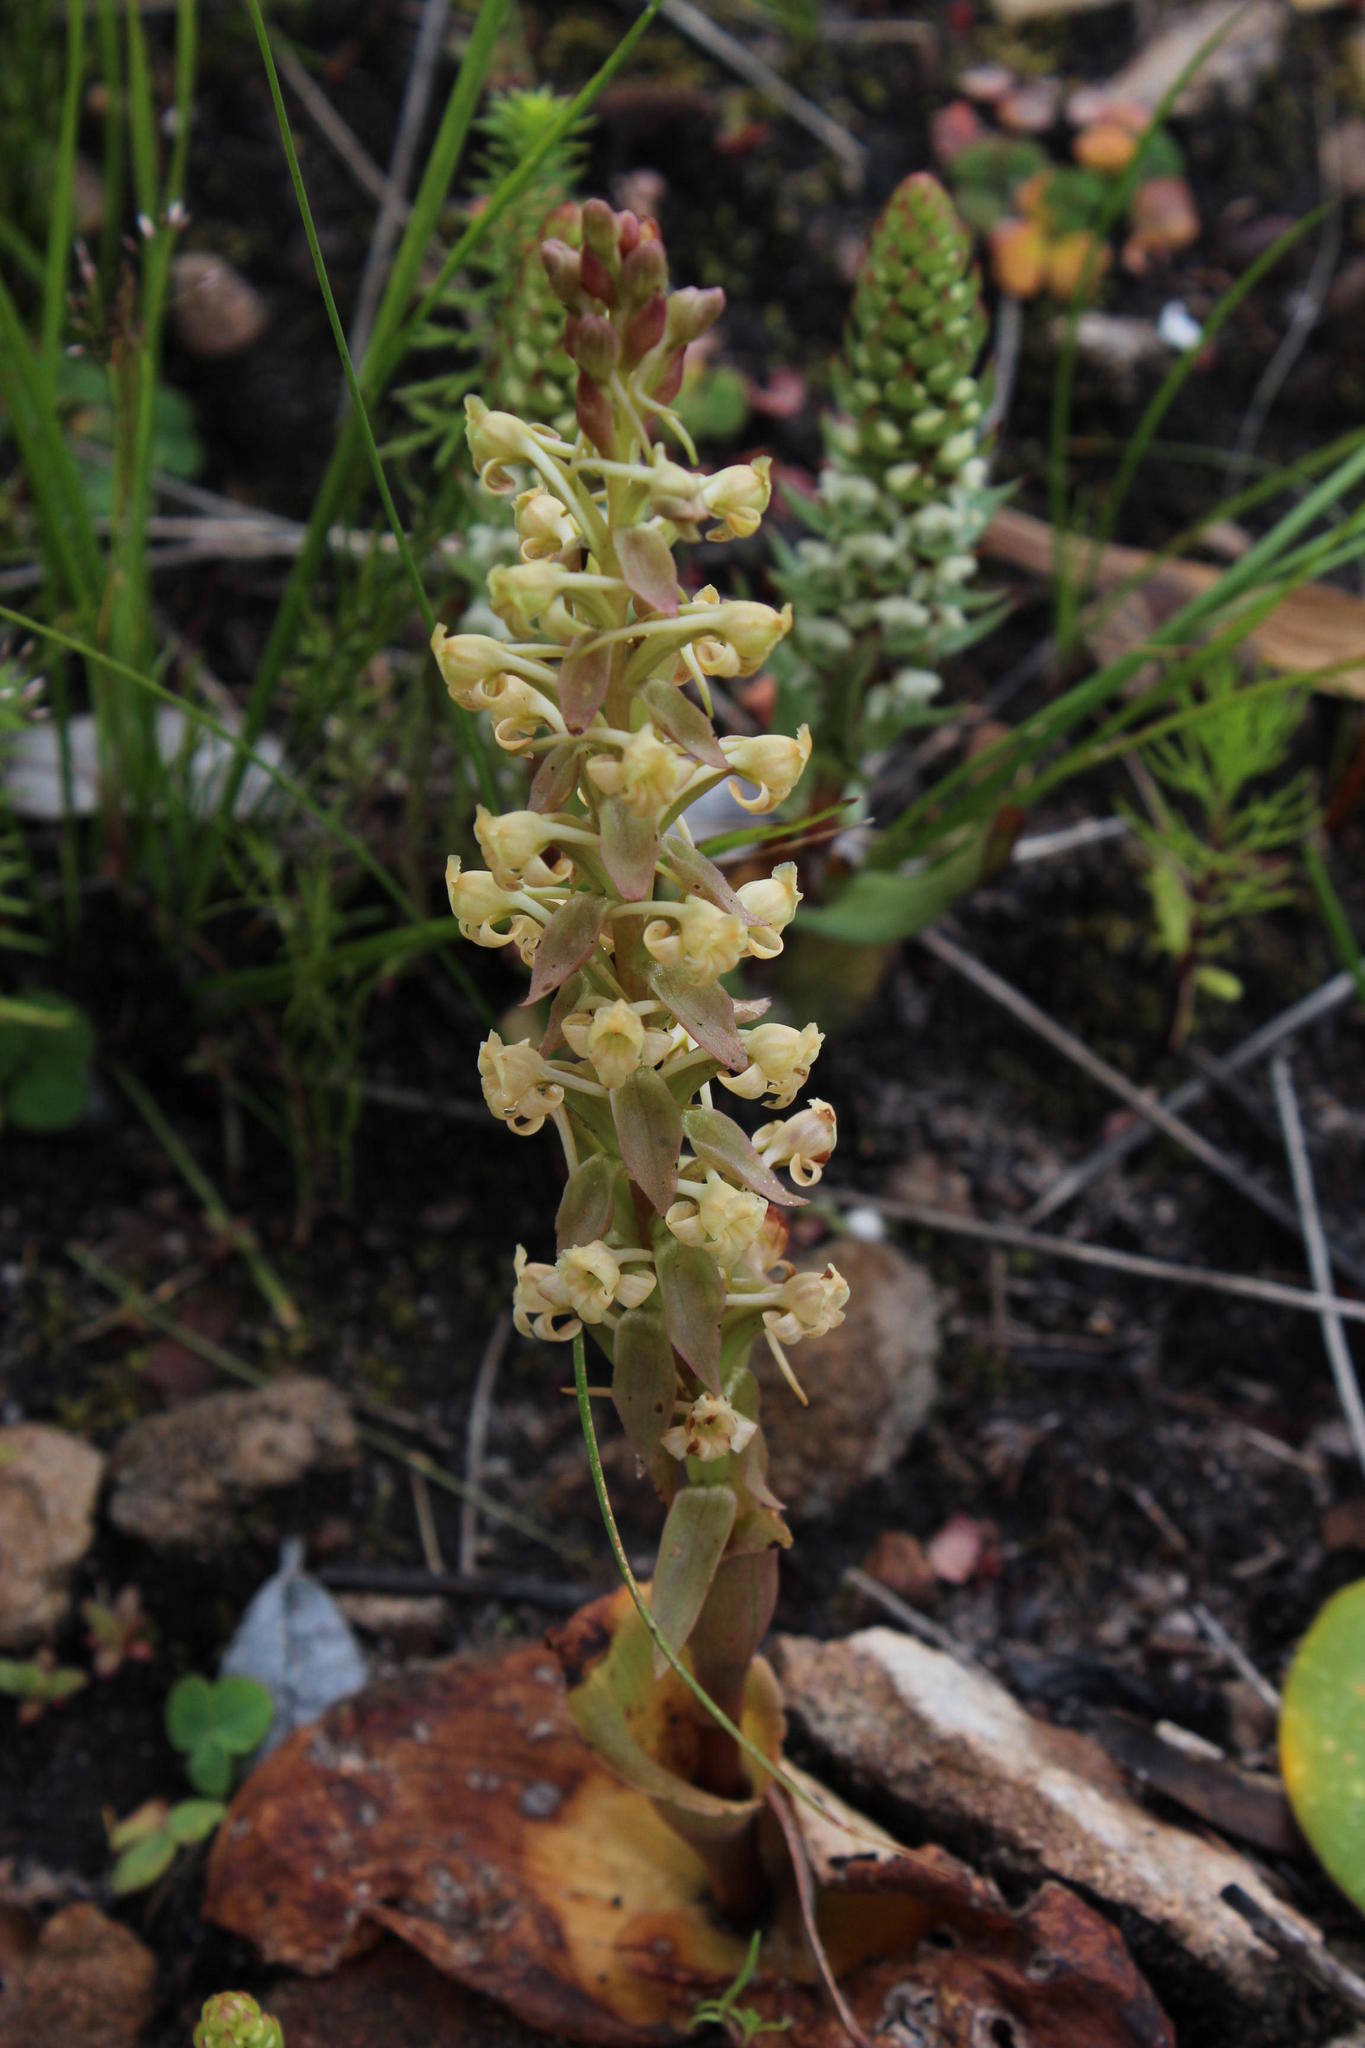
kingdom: Plantae
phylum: Tracheophyta
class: Liliopsida
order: Asparagales
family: Orchidaceae
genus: Satyrium
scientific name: Satyrium humile
